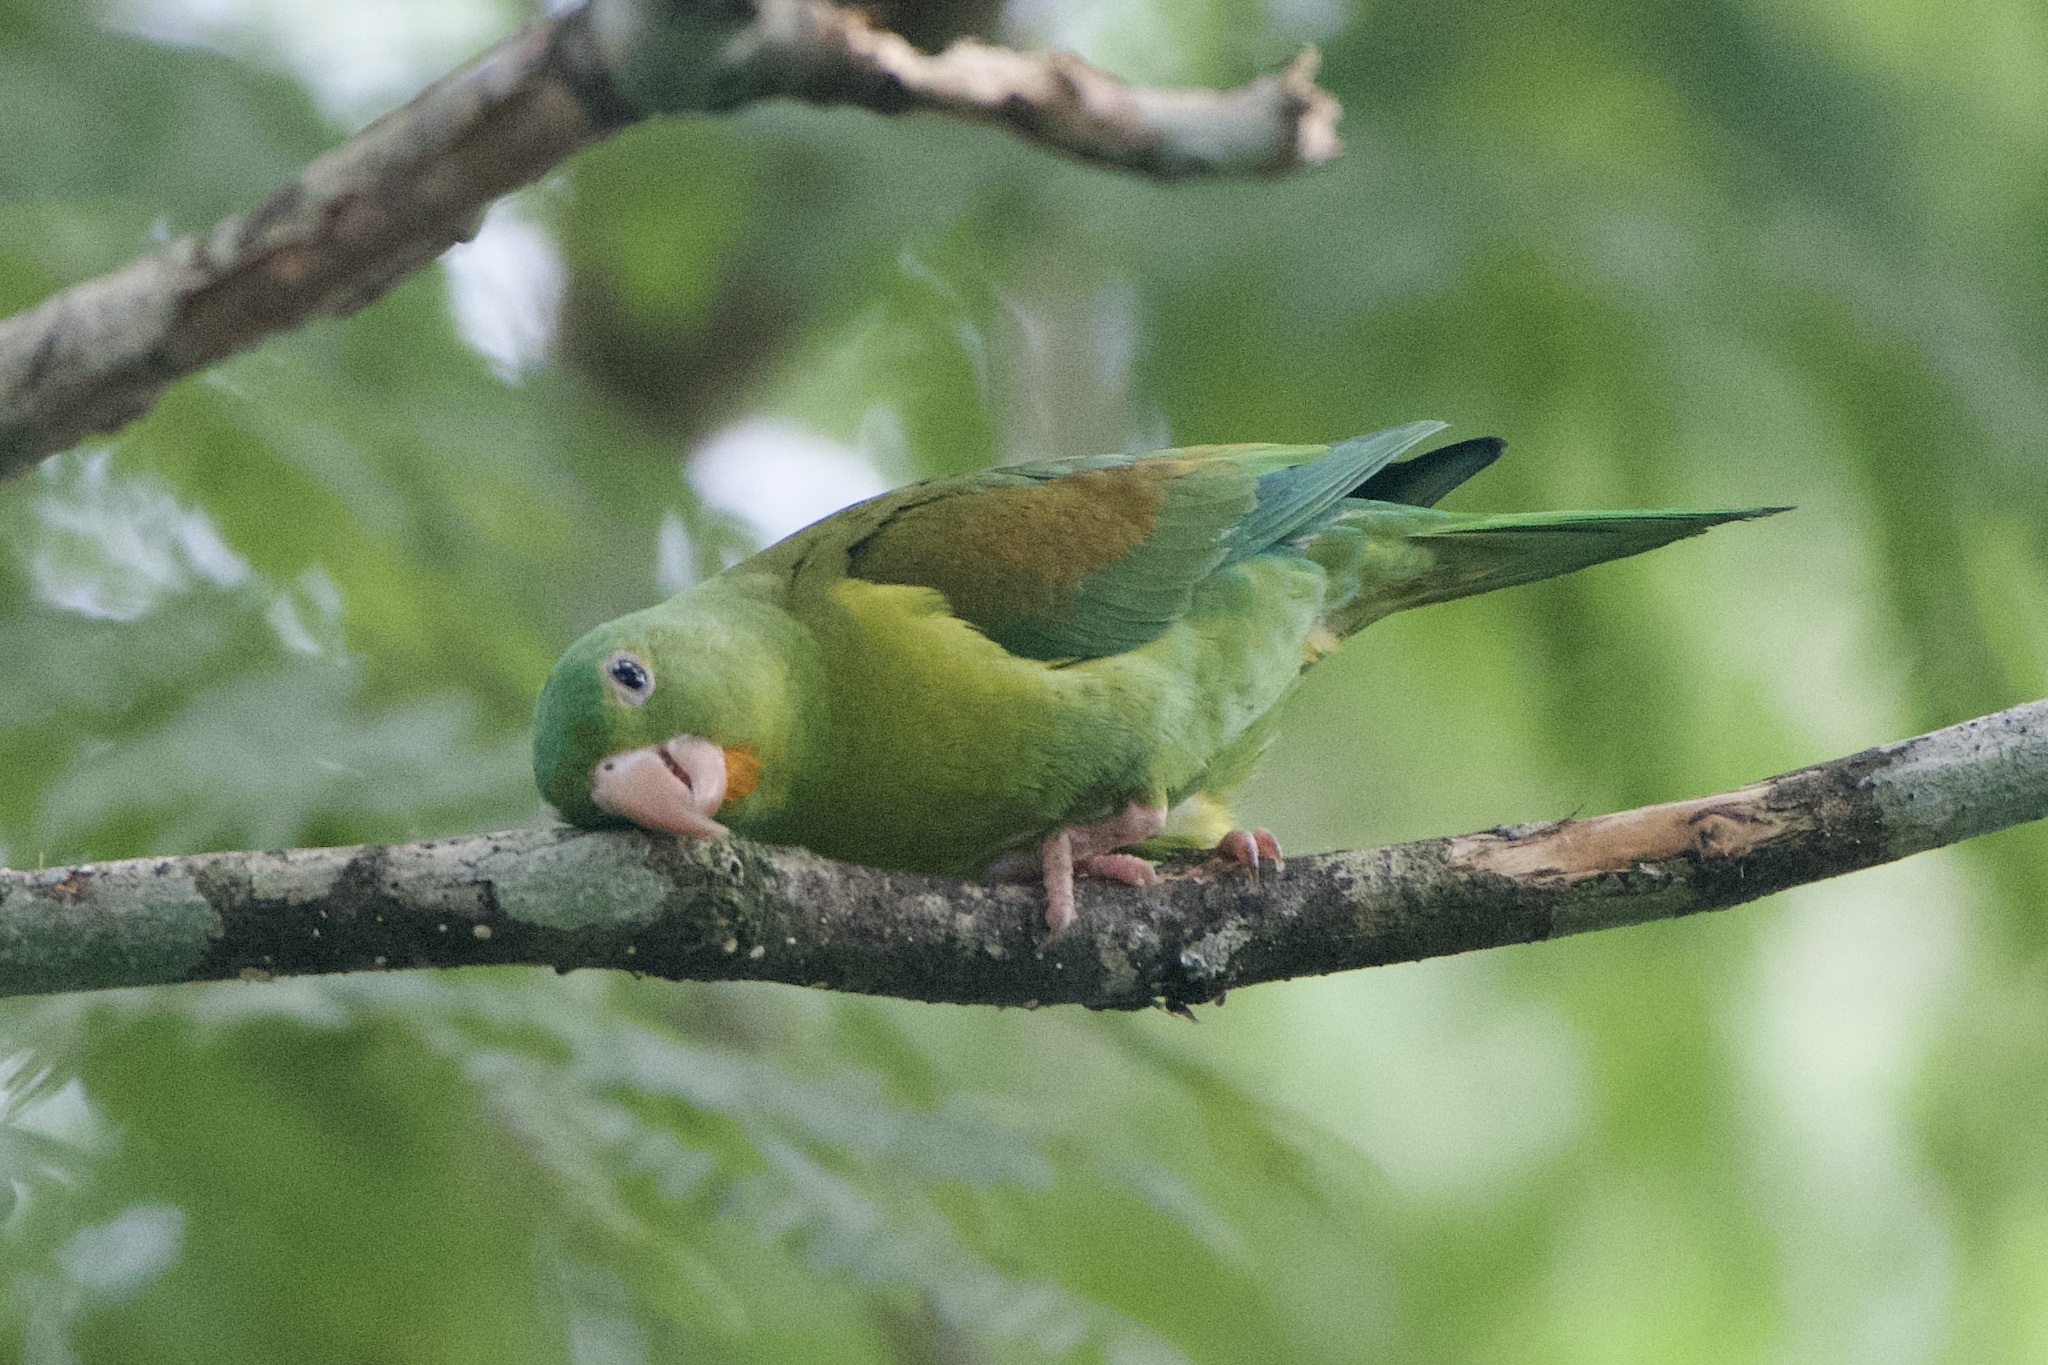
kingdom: Animalia
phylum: Chordata
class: Aves
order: Psittaciformes
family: Psittacidae
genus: Brotogeris
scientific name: Brotogeris jugularis
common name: Orange-chinned parakeet
